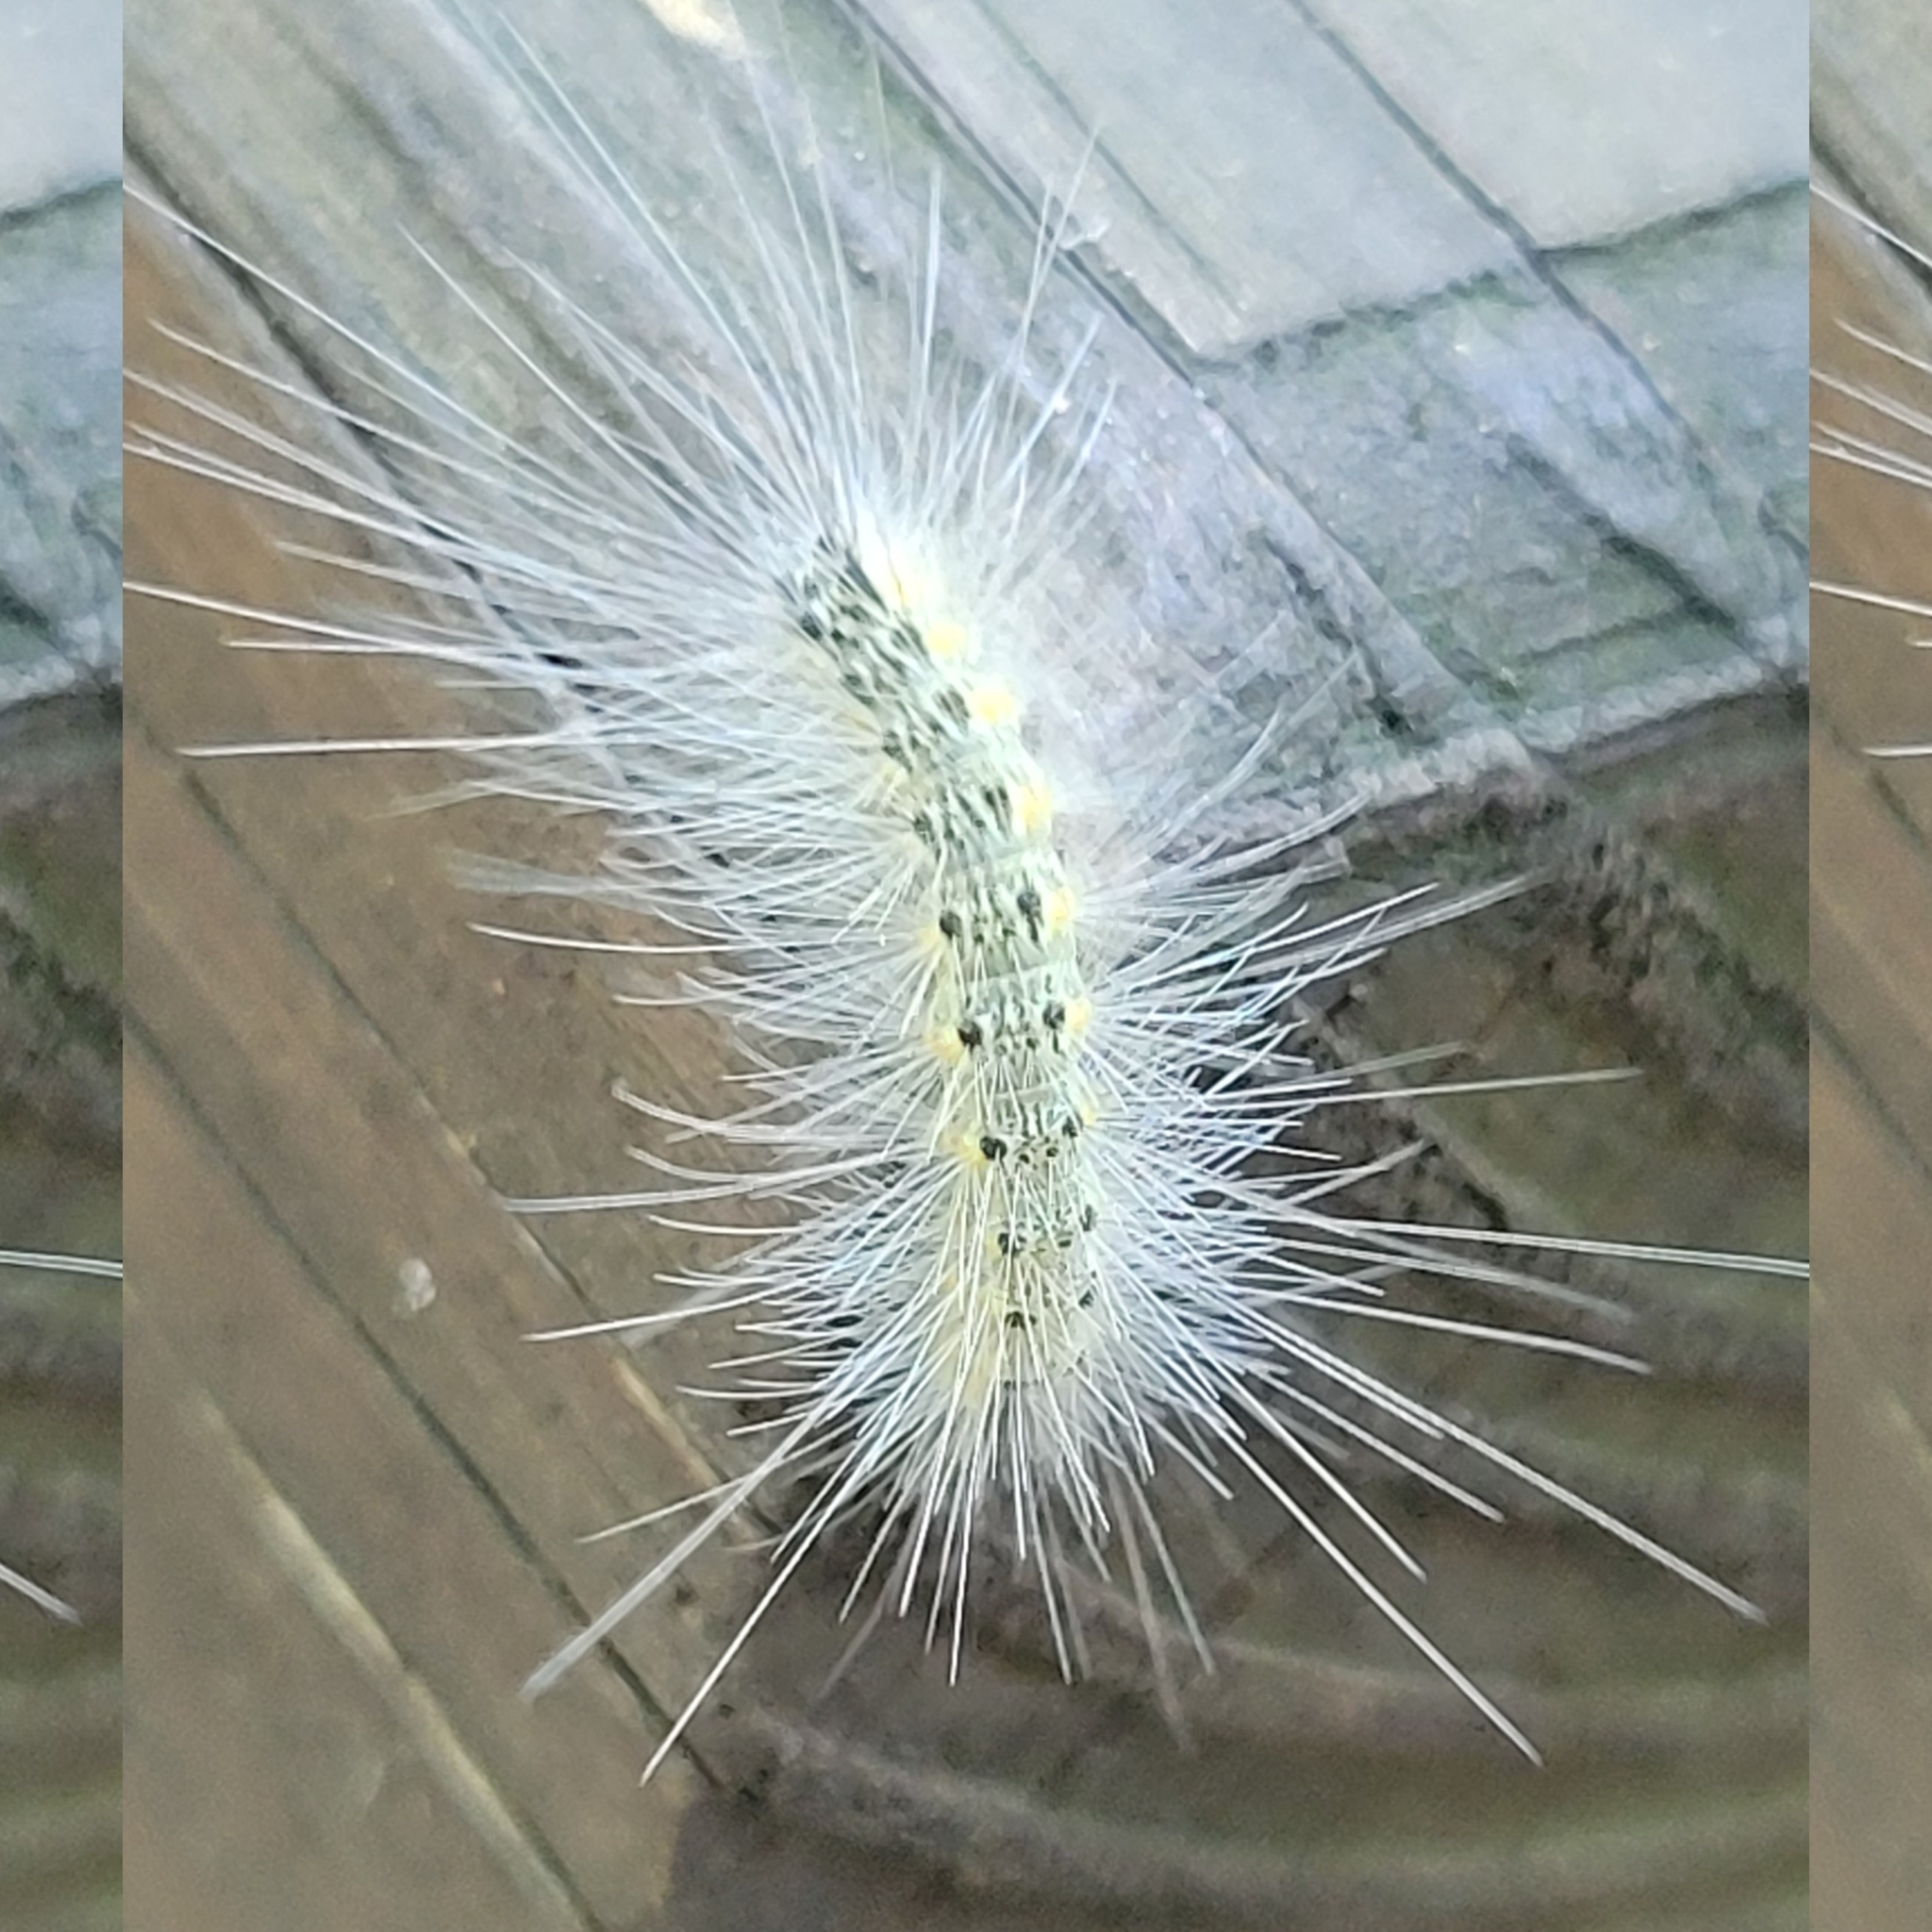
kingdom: Animalia
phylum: Arthropoda
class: Insecta
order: Lepidoptera
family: Erebidae
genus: Hyphantria
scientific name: Hyphantria cunea
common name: American white moth
